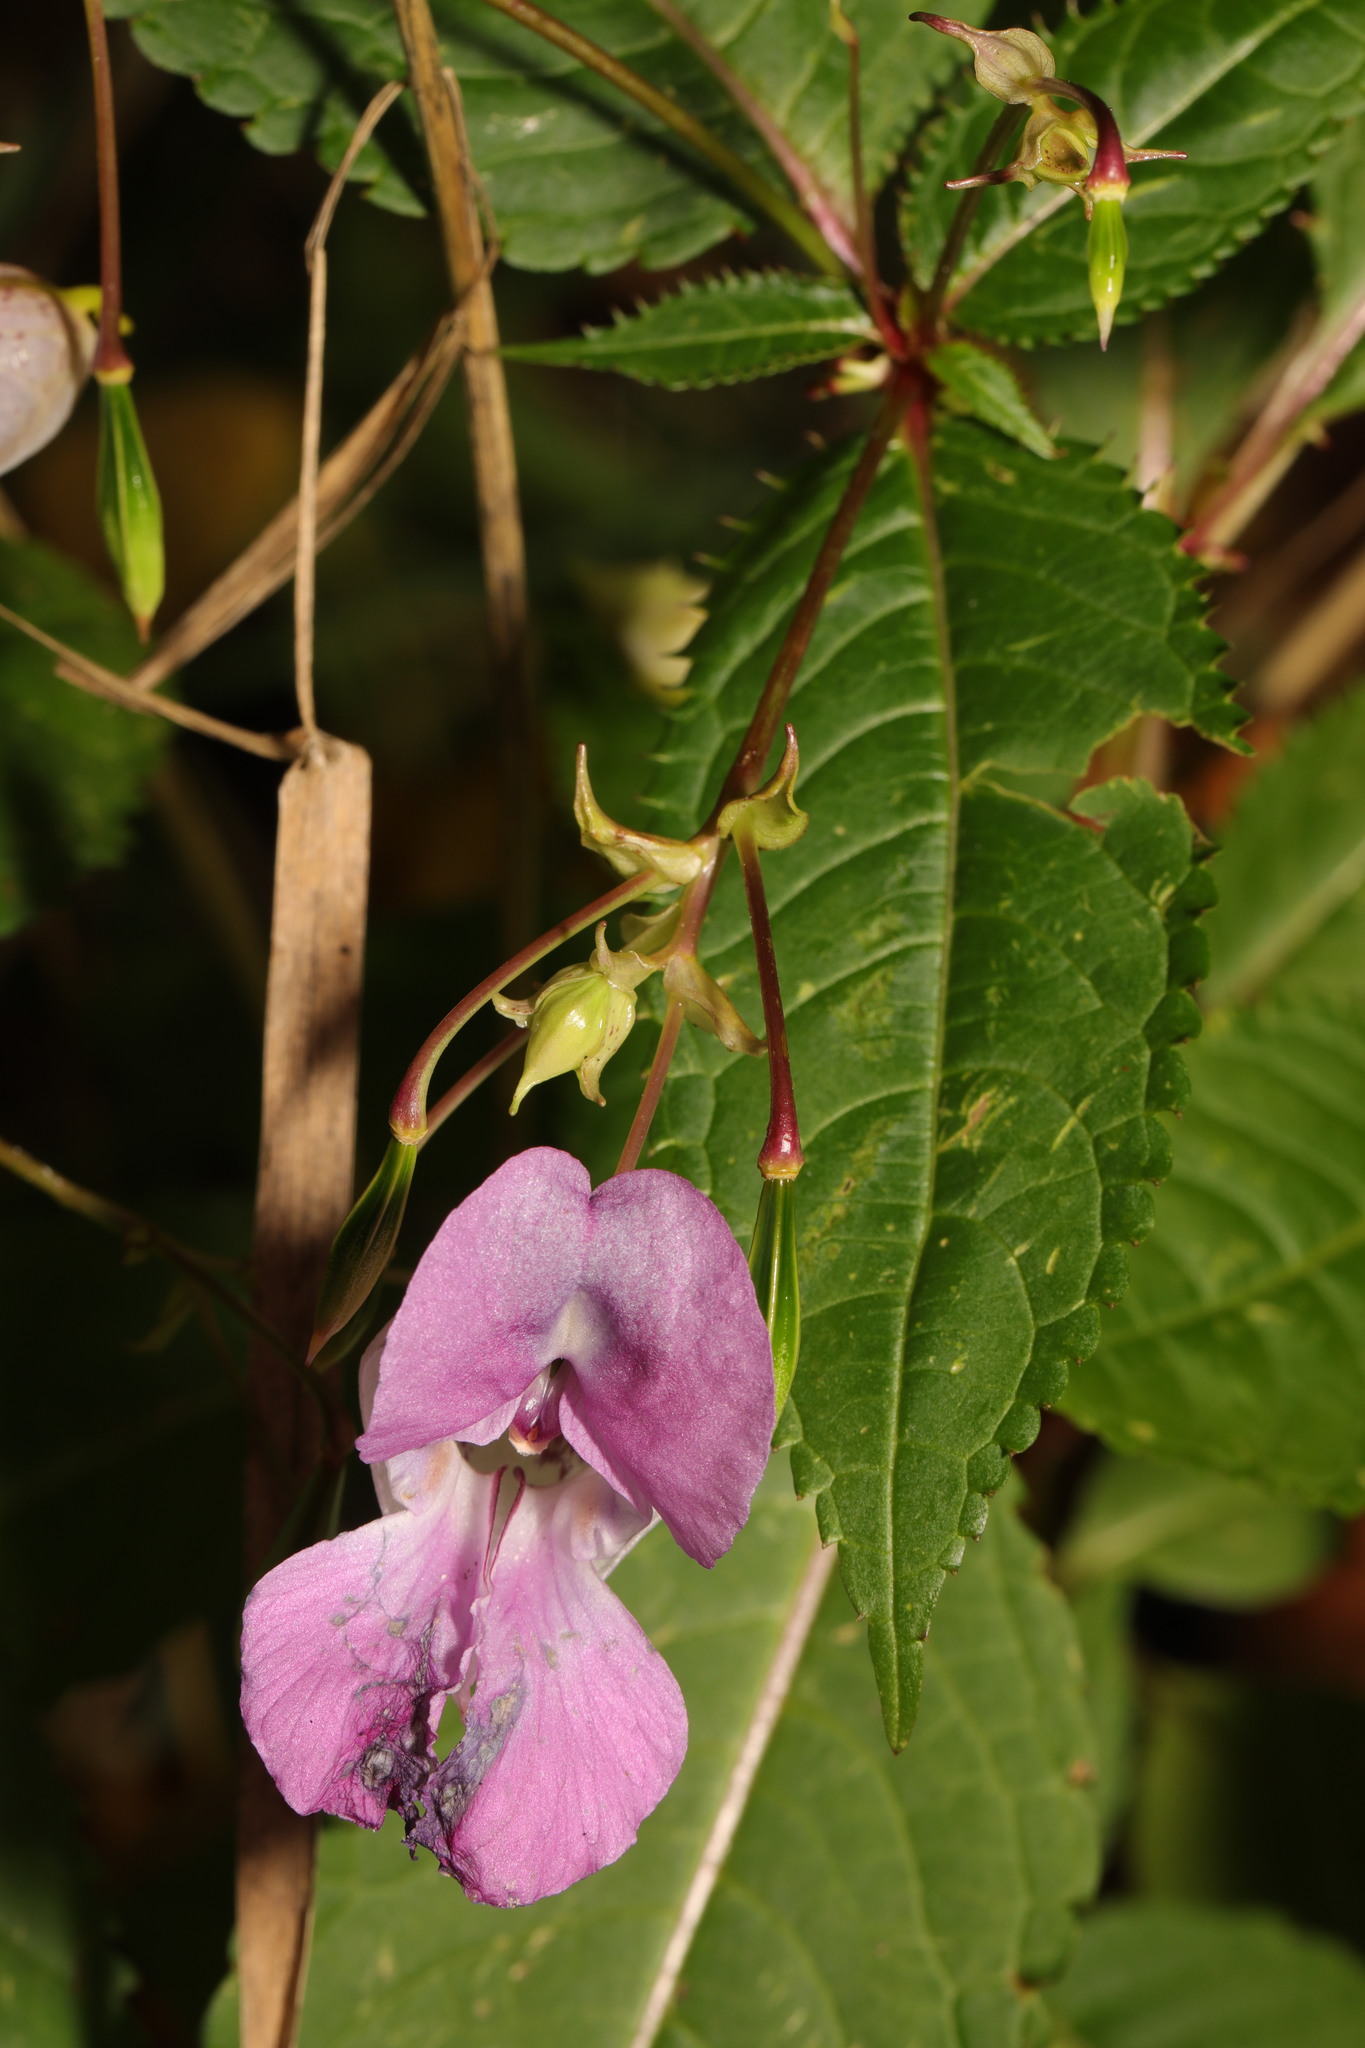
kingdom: Plantae
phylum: Tracheophyta
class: Magnoliopsida
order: Ericales
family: Balsaminaceae
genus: Impatiens
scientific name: Impatiens glandulifera
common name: Himalayan balsam
